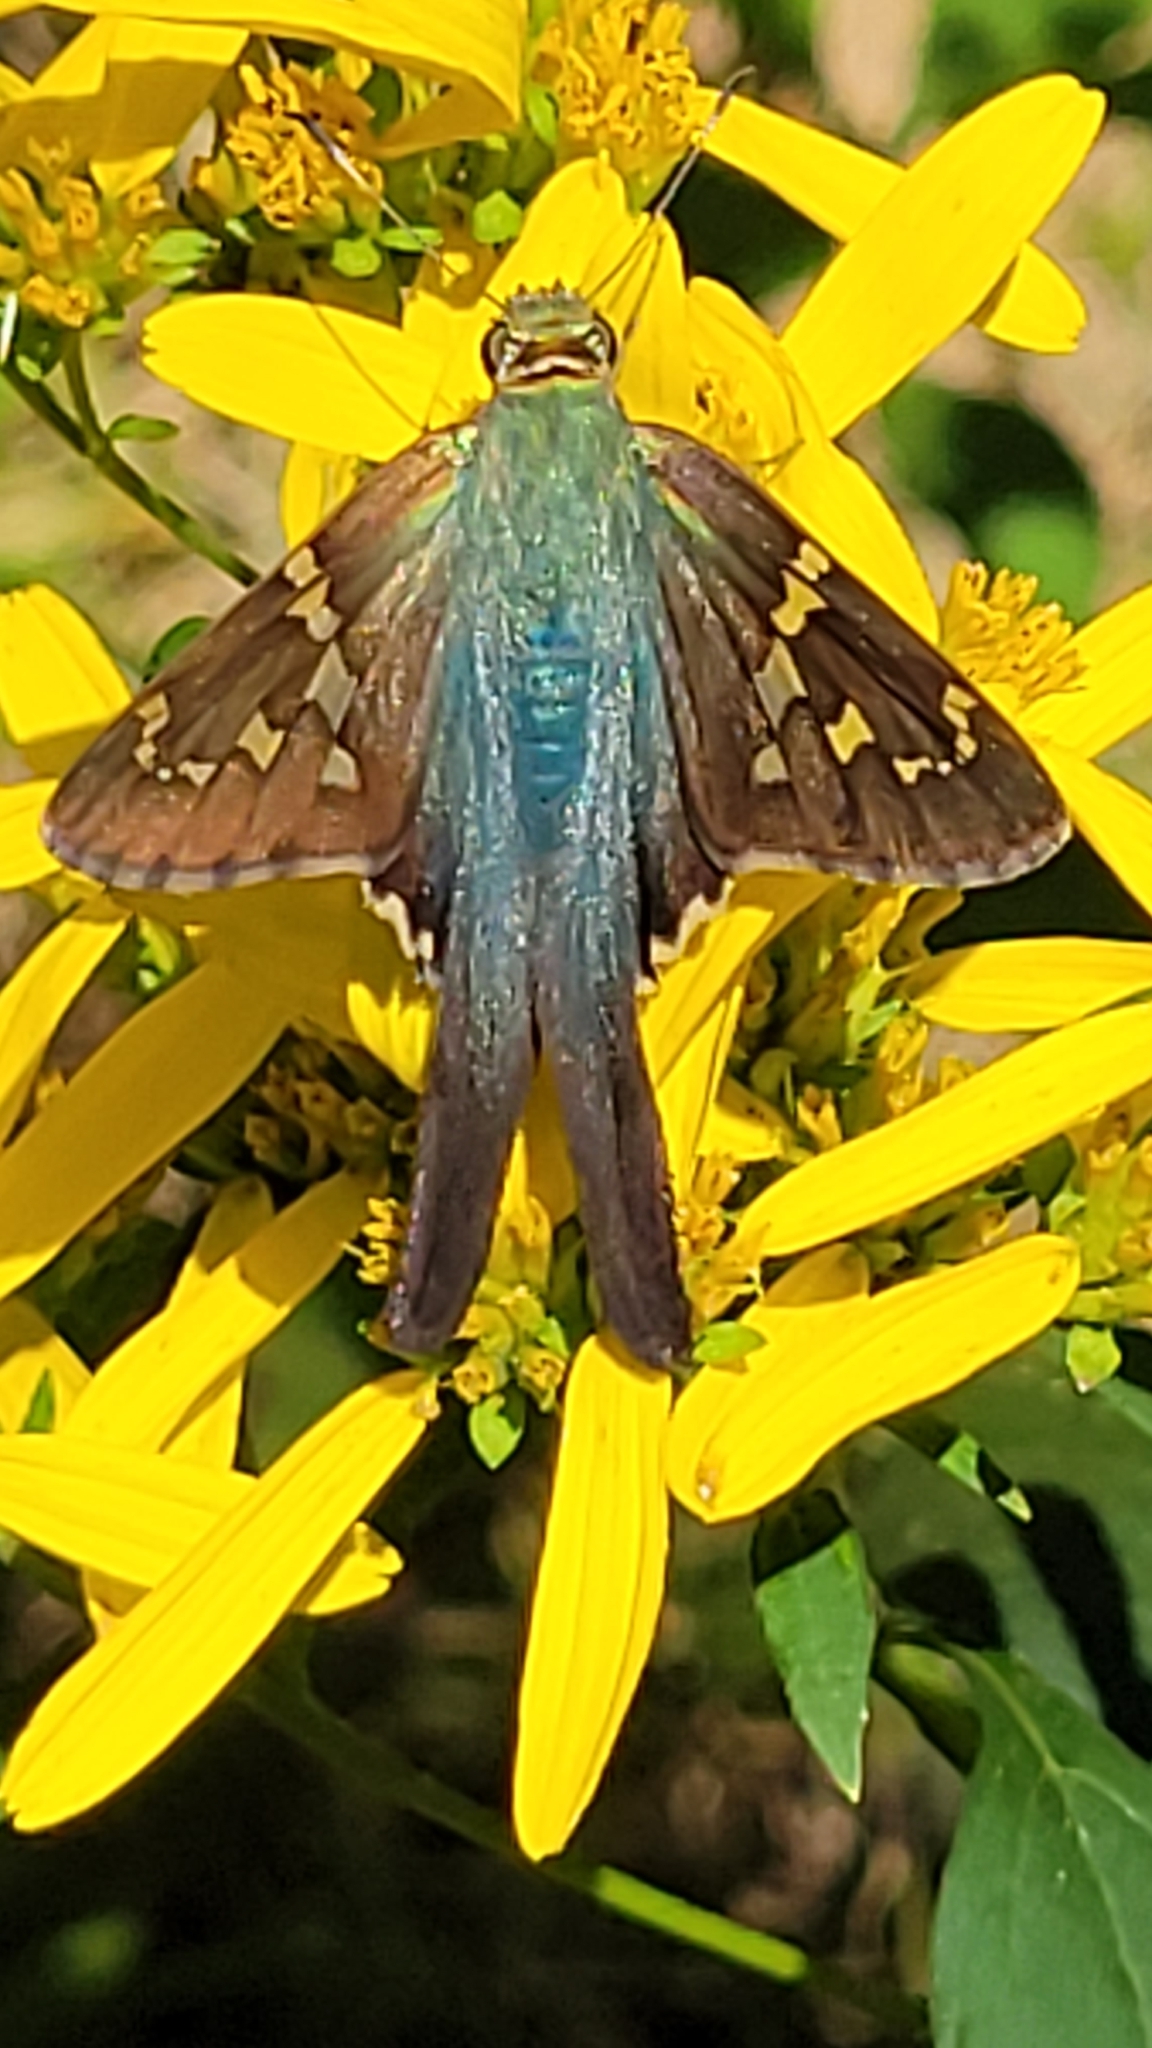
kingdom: Animalia
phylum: Arthropoda
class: Insecta
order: Lepidoptera
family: Hesperiidae
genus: Urbanus
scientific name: Urbanus proteus
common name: Long-tailed skipper
